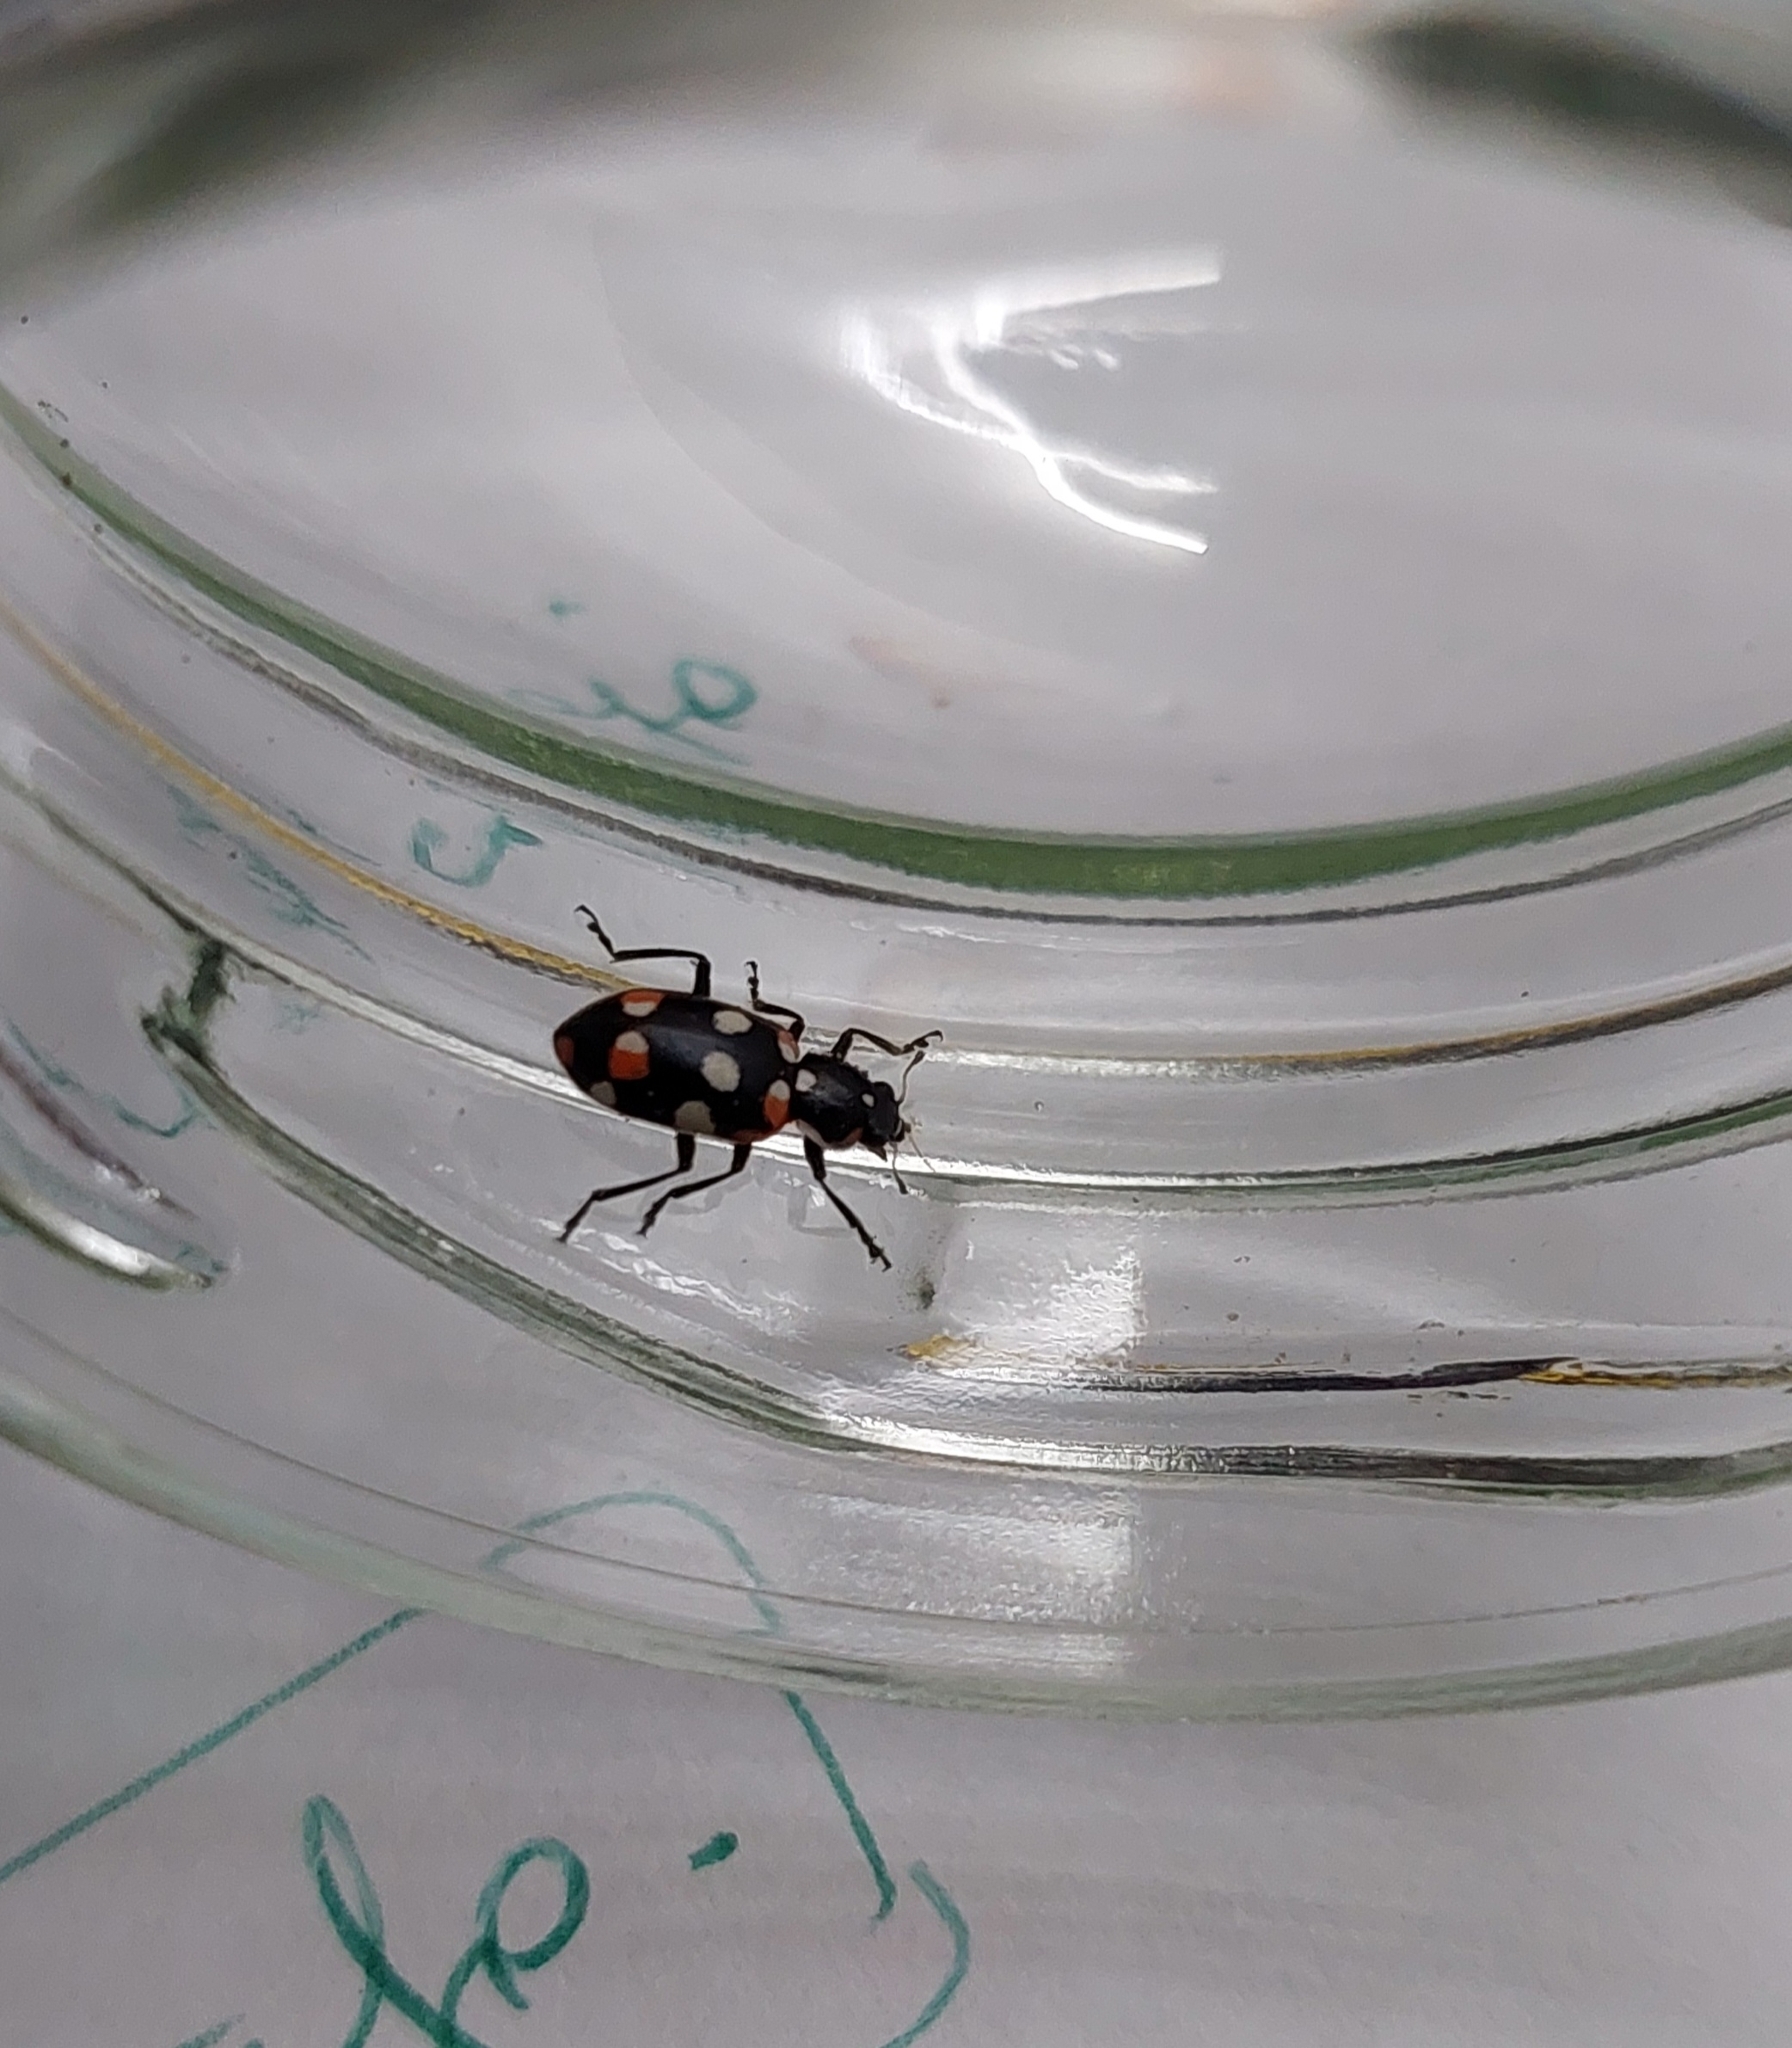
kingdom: Animalia
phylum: Arthropoda
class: Insecta
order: Coleoptera
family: Coccinellidae
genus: Eriopis
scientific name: Eriopis connexa
